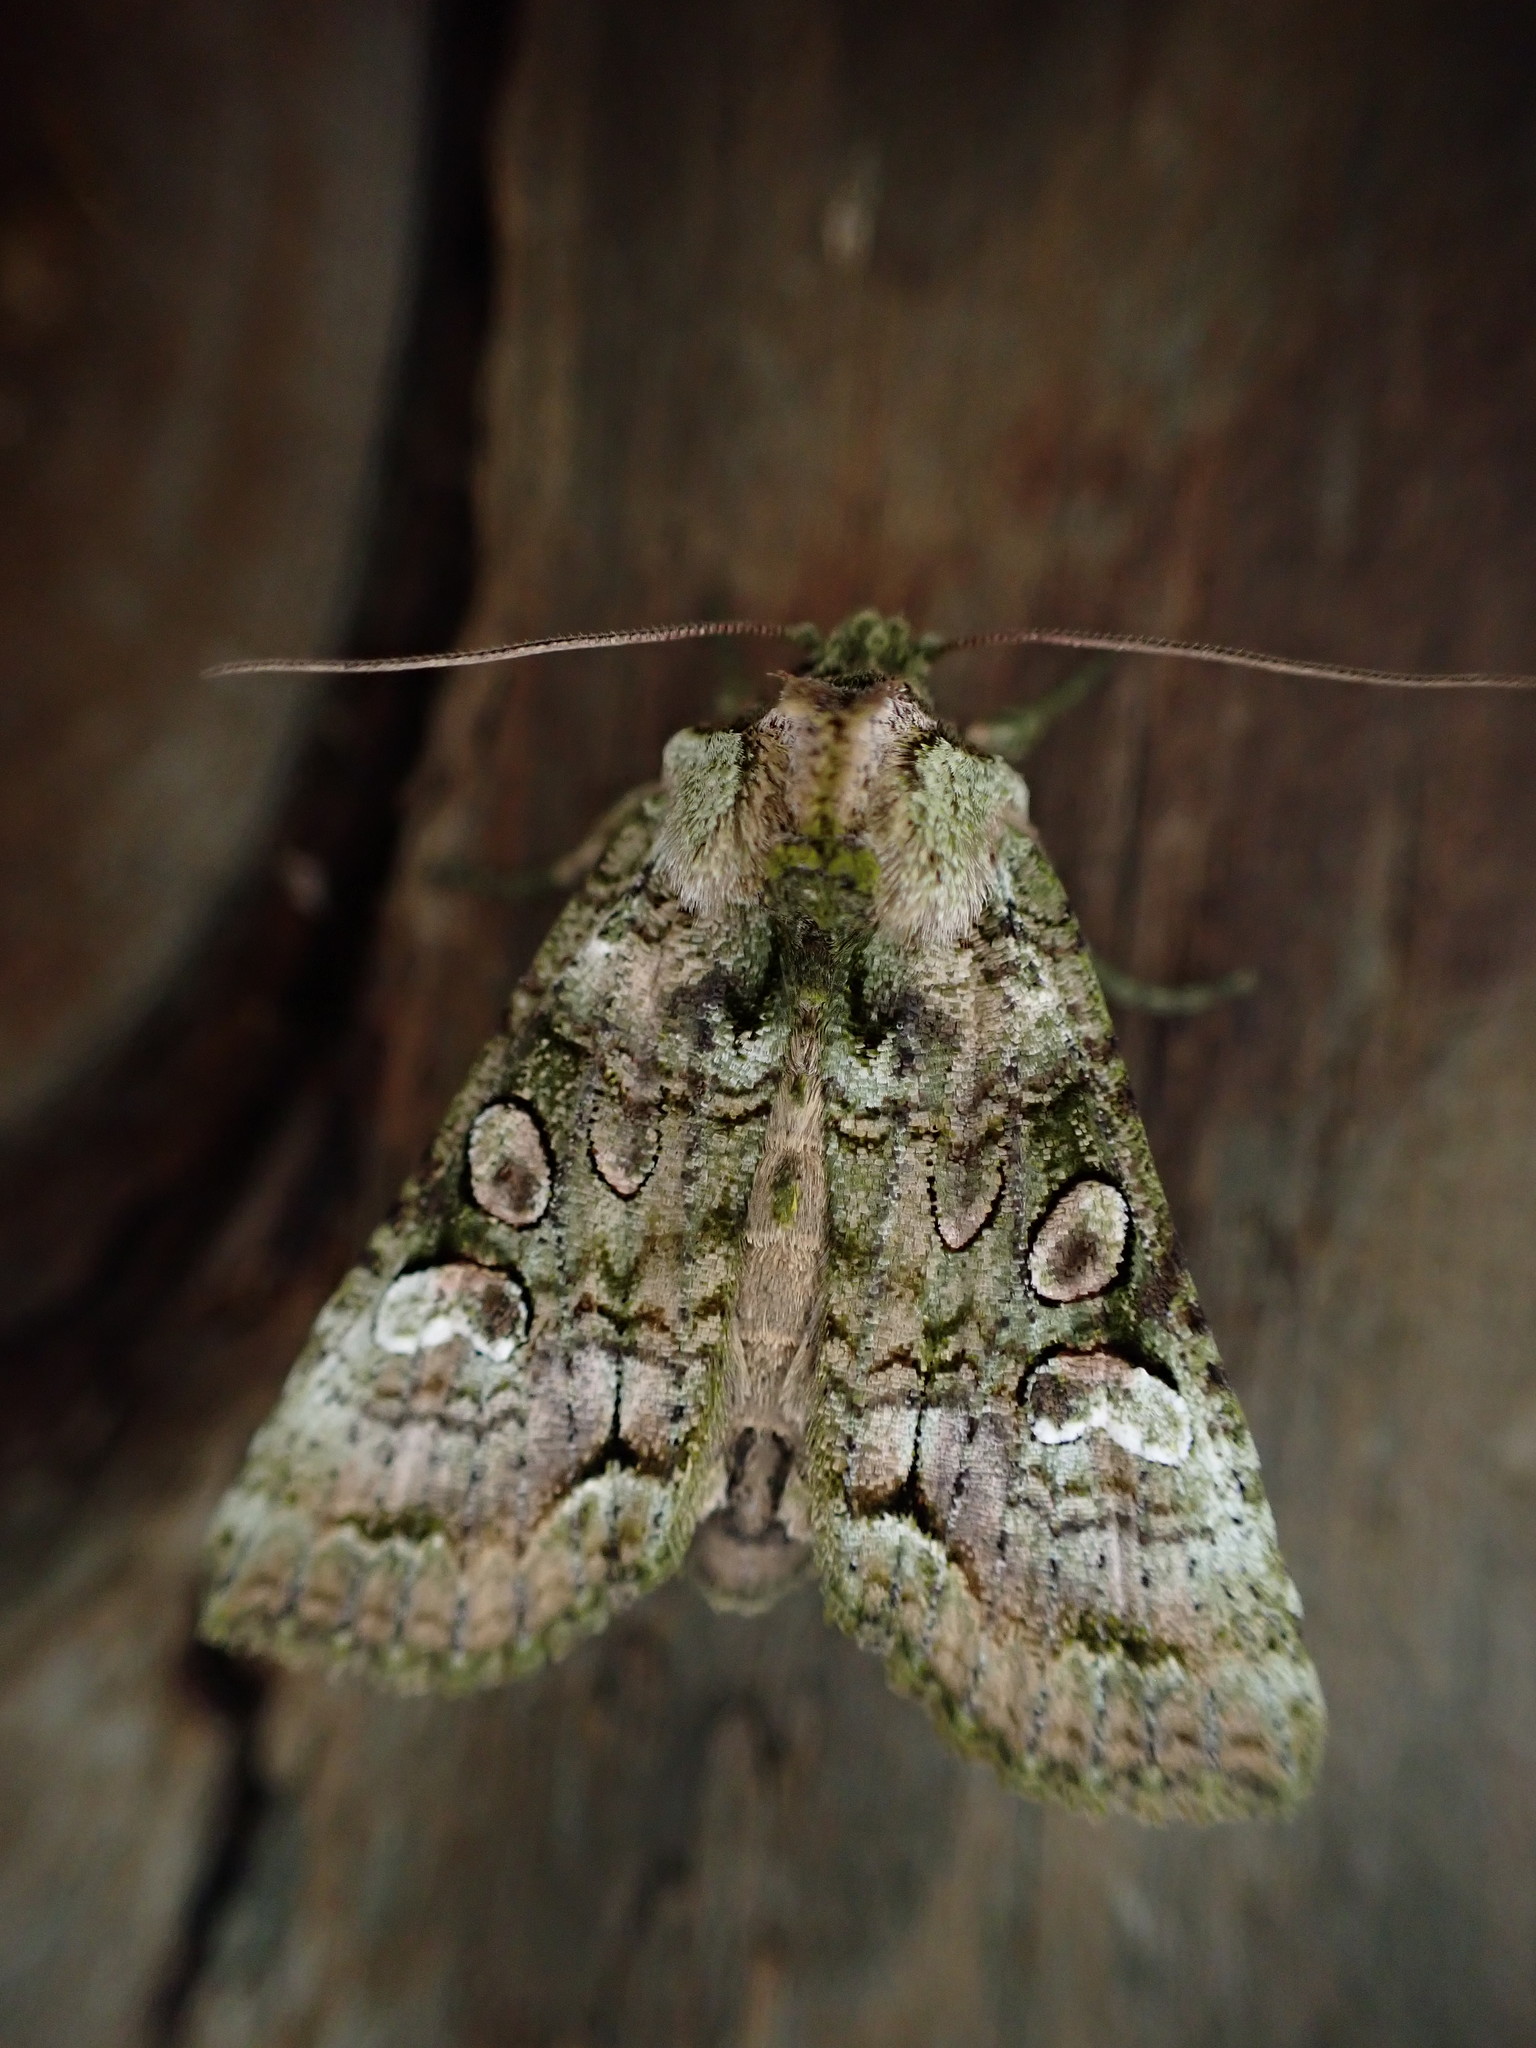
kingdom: Animalia
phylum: Arthropoda
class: Insecta
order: Lepidoptera
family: Noctuidae
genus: Meterana
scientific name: Meterana levis
